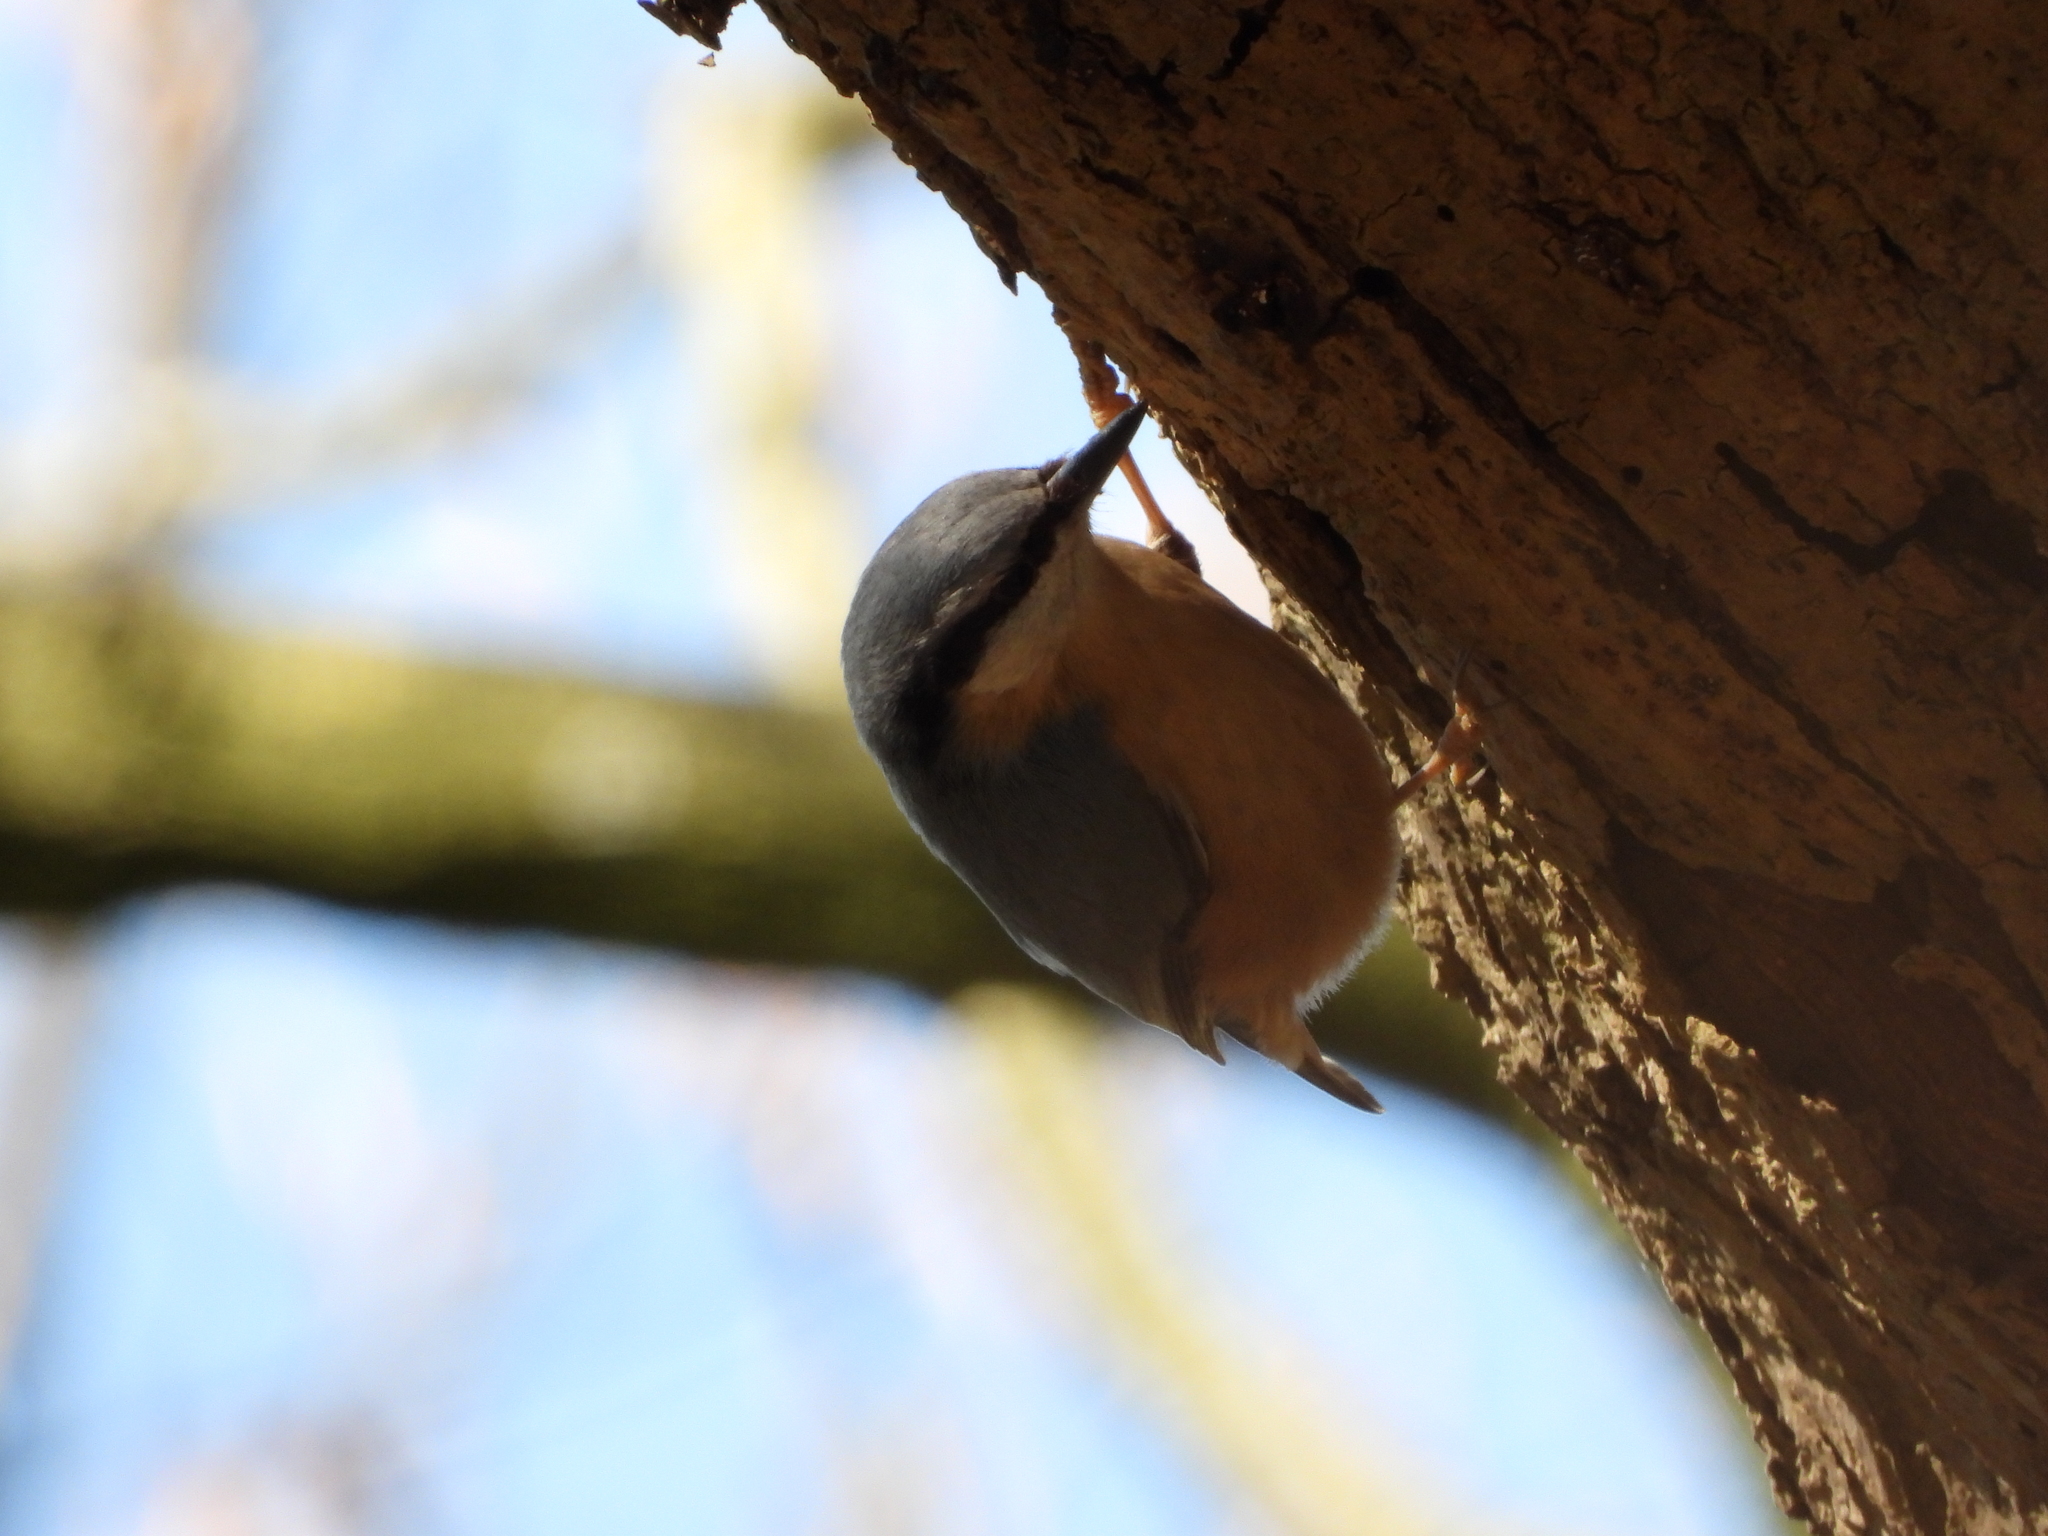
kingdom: Animalia
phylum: Chordata
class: Aves
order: Passeriformes
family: Sittidae
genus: Sitta
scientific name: Sitta europaea
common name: Eurasian nuthatch
